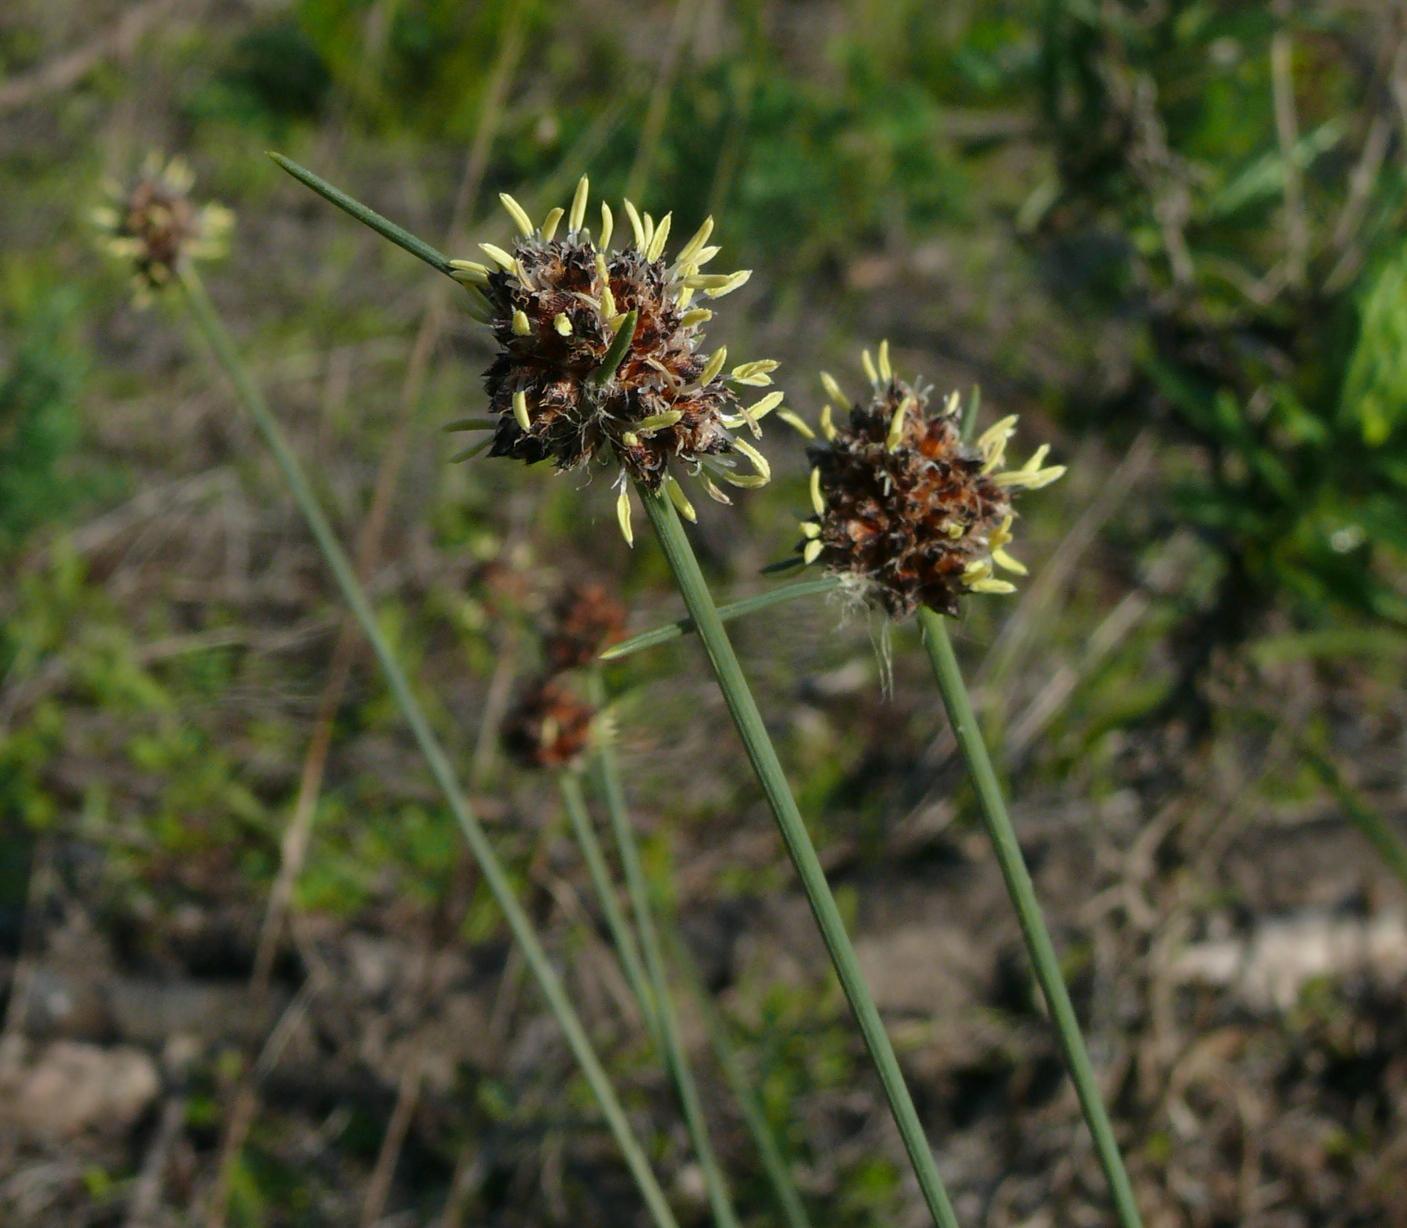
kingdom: Plantae
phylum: Tracheophyta
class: Liliopsida
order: Poales
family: Cyperaceae
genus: Ficinia
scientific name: Ficinia paradoxa
